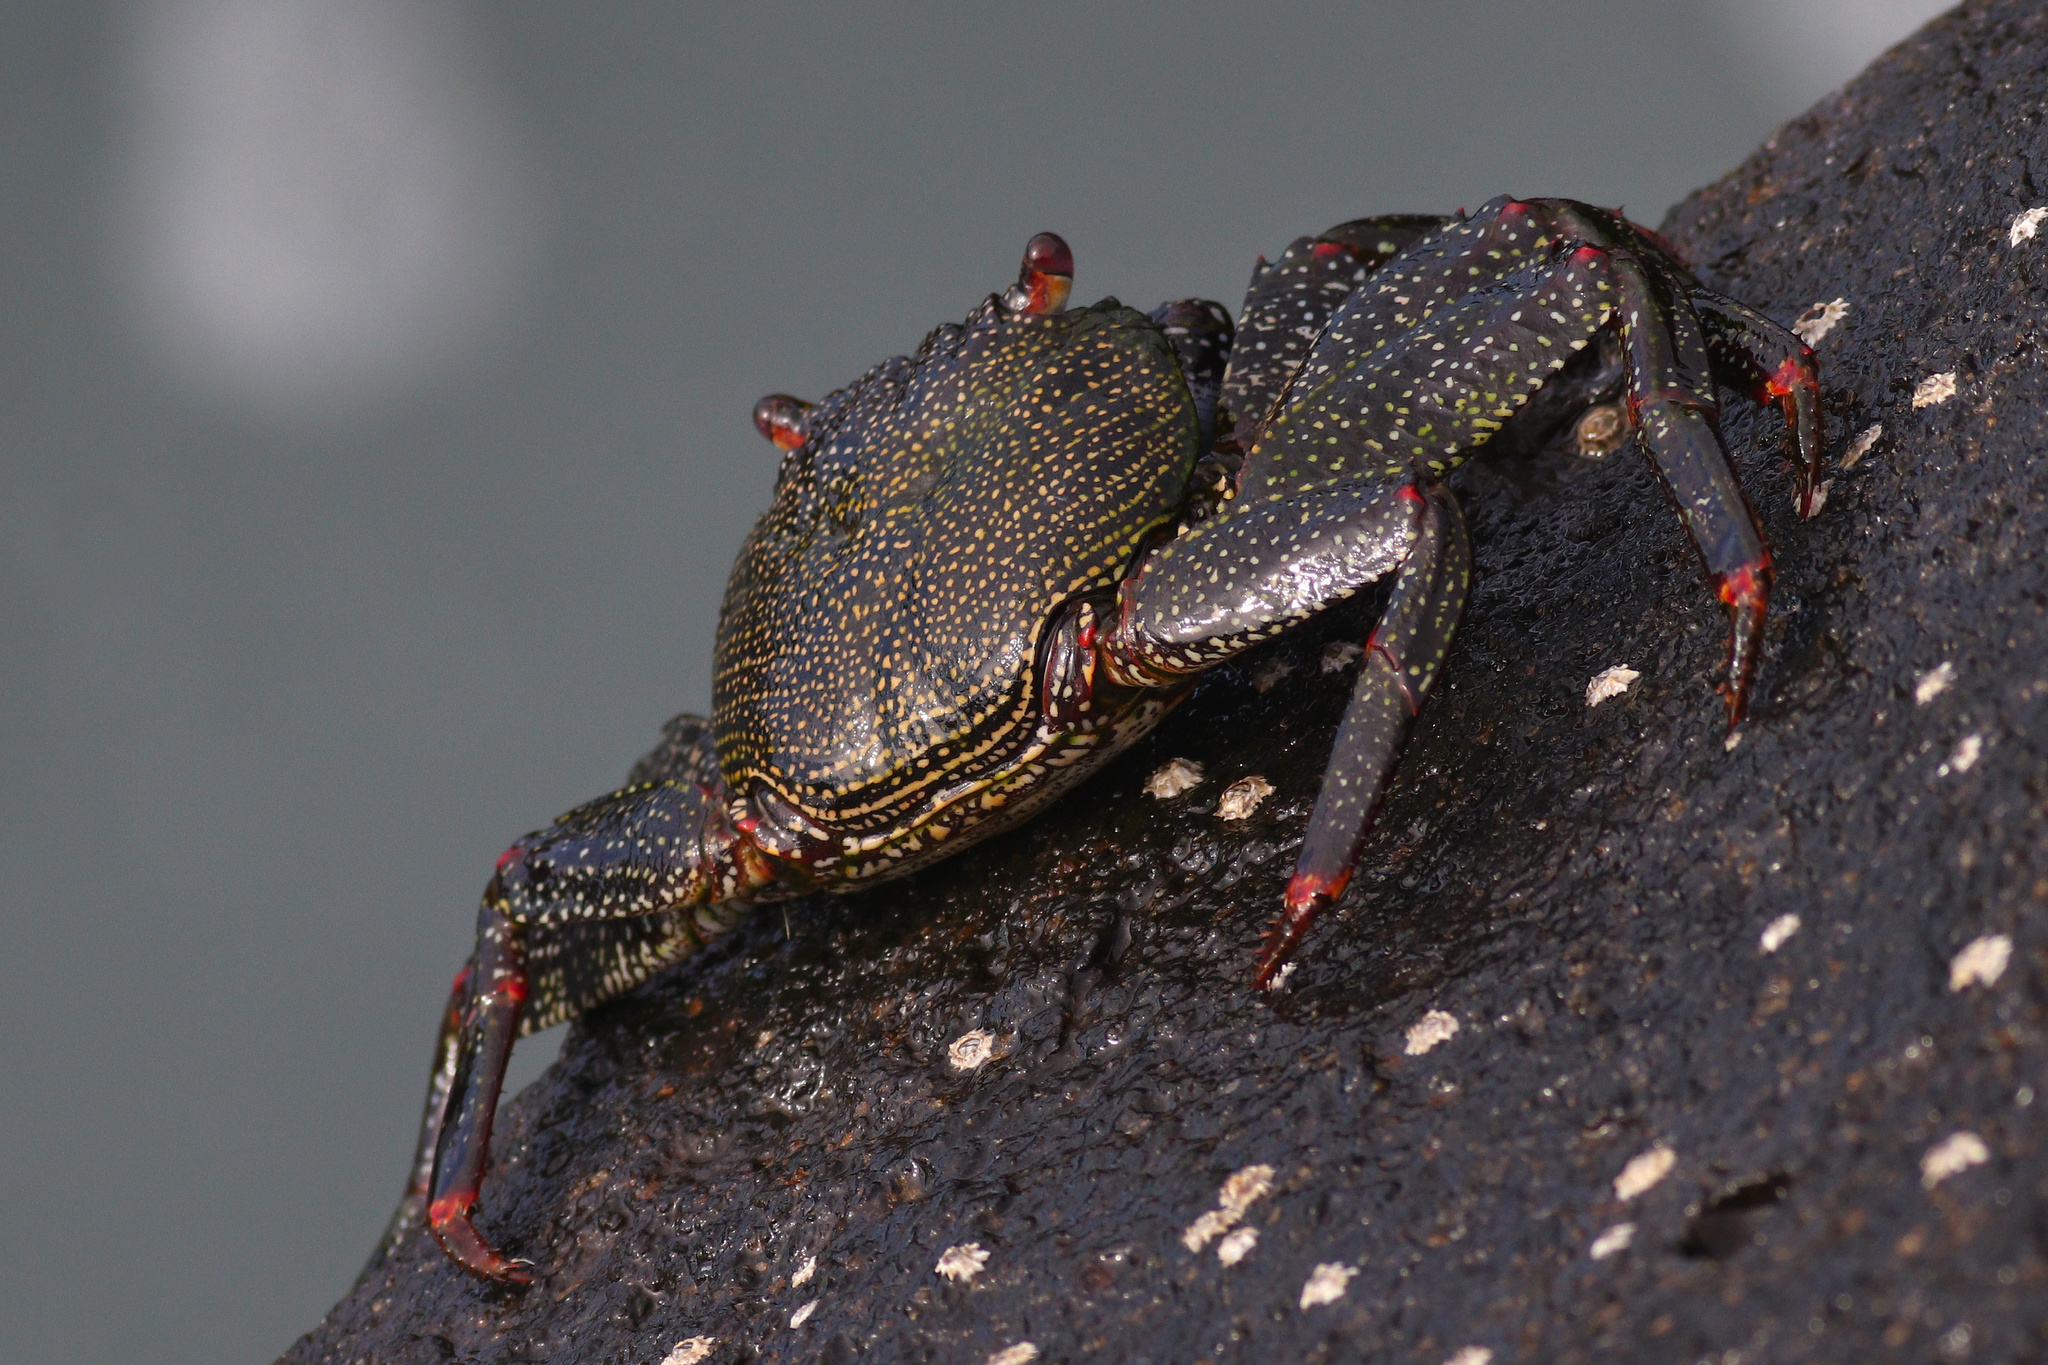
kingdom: Animalia
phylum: Arthropoda
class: Malacostraca
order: Decapoda
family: Grapsidae
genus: Grapsus
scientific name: Grapsus adscensionis
